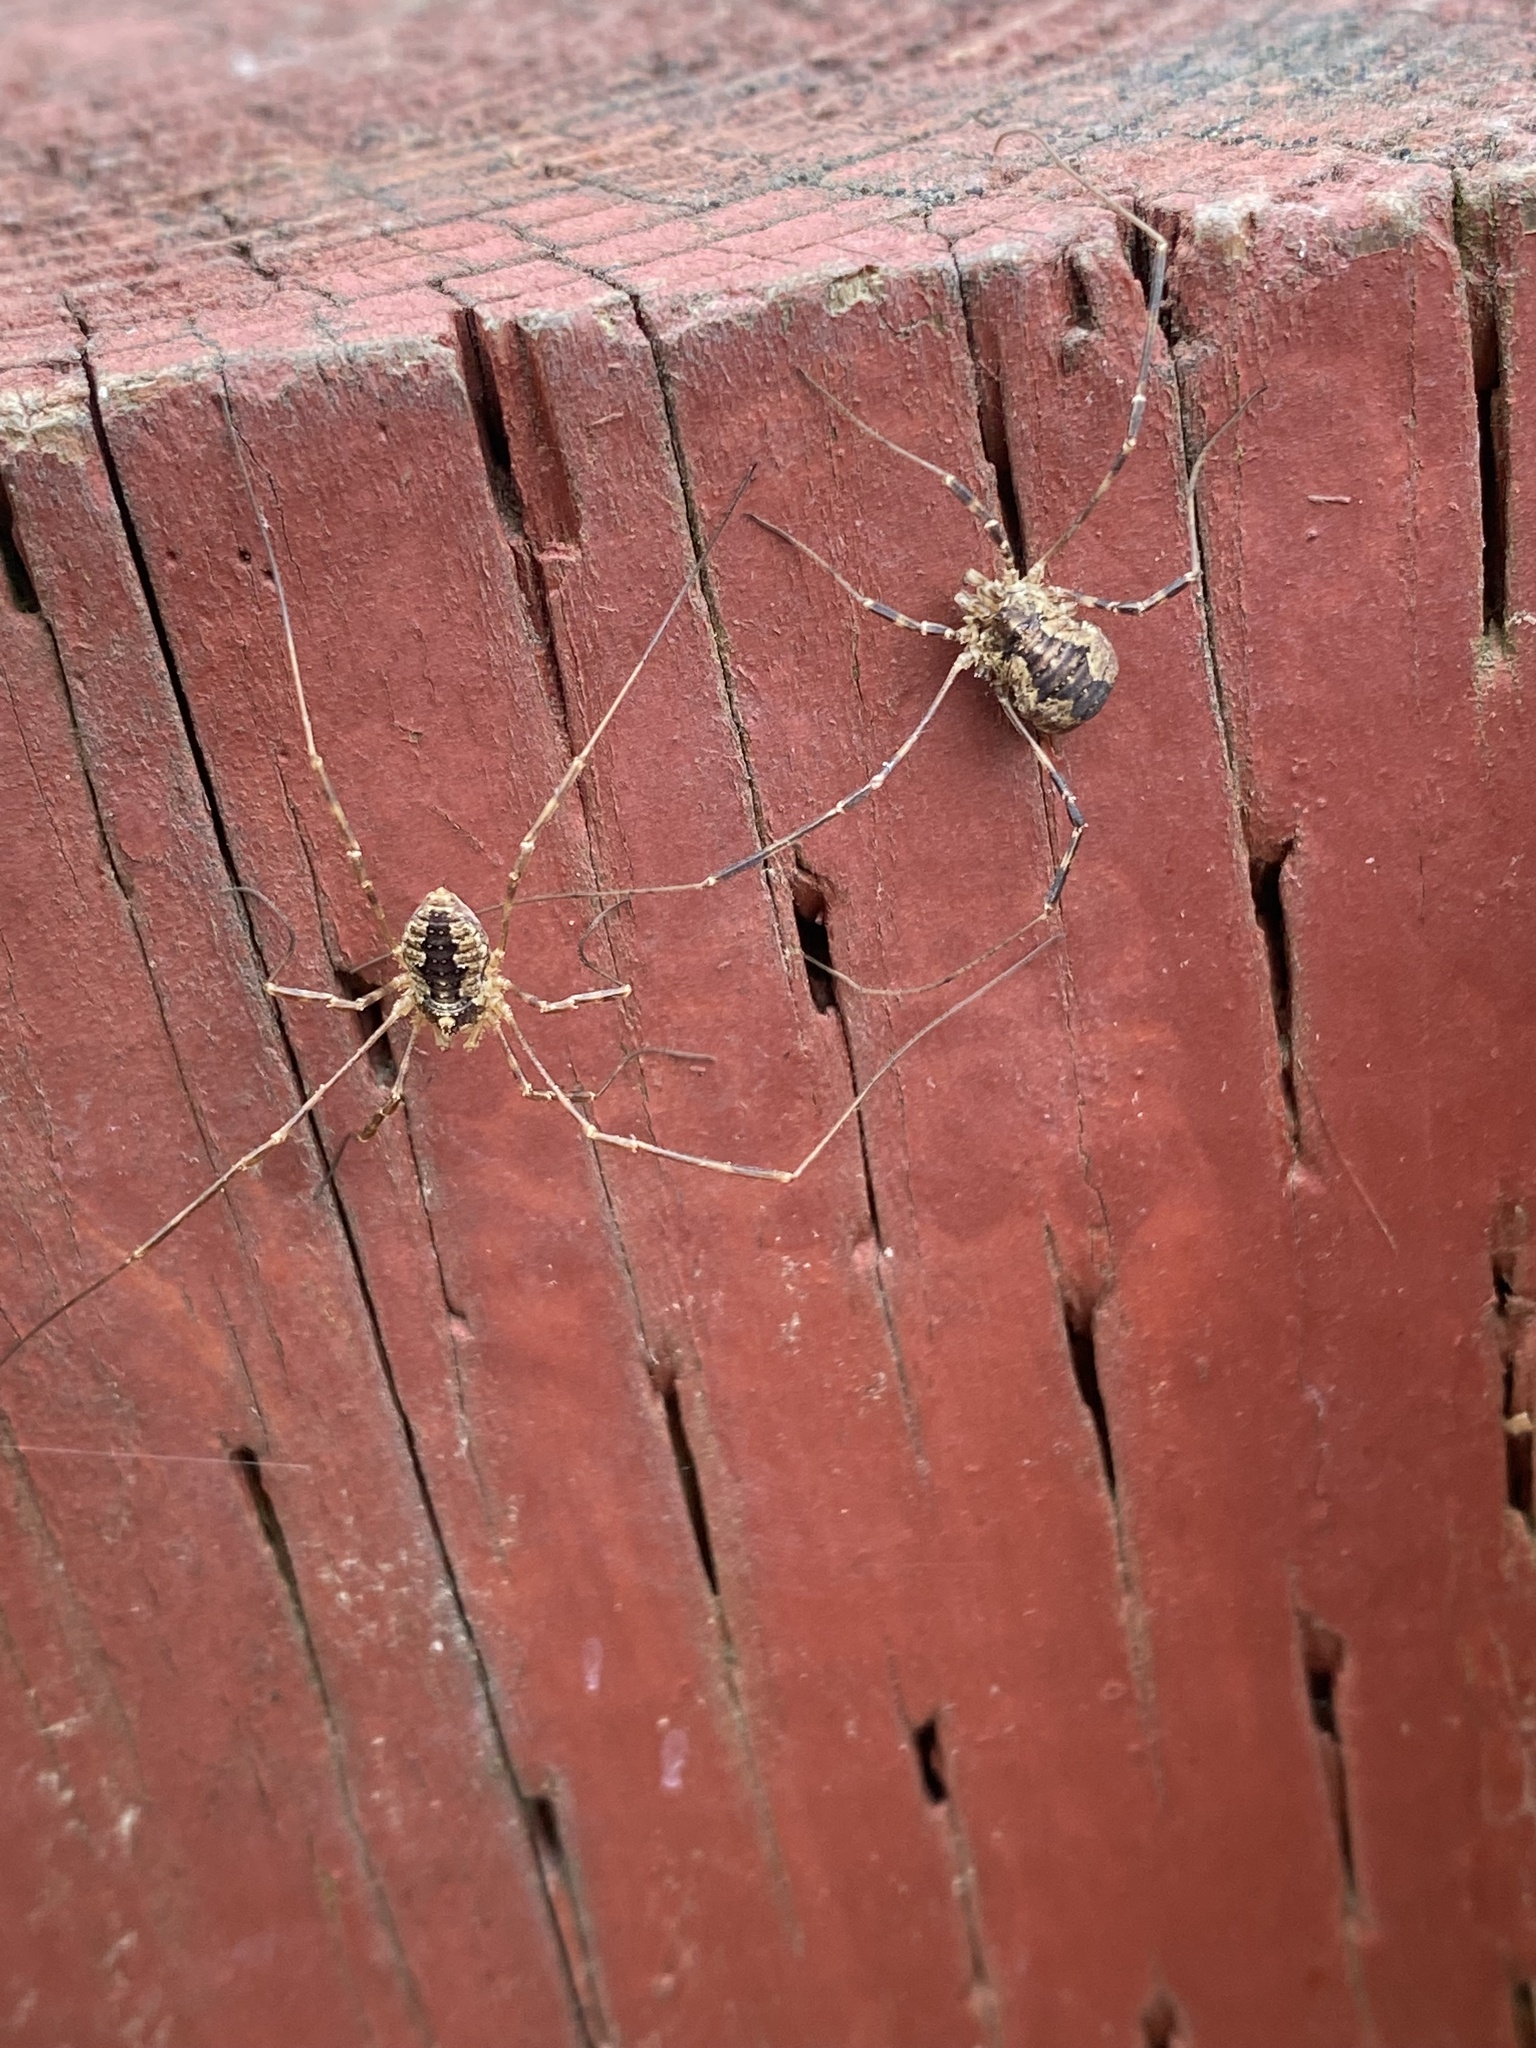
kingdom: Animalia
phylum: Arthropoda
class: Arachnida
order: Opiliones
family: Phalangiidae
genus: Odiellus
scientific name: Odiellus pictus
